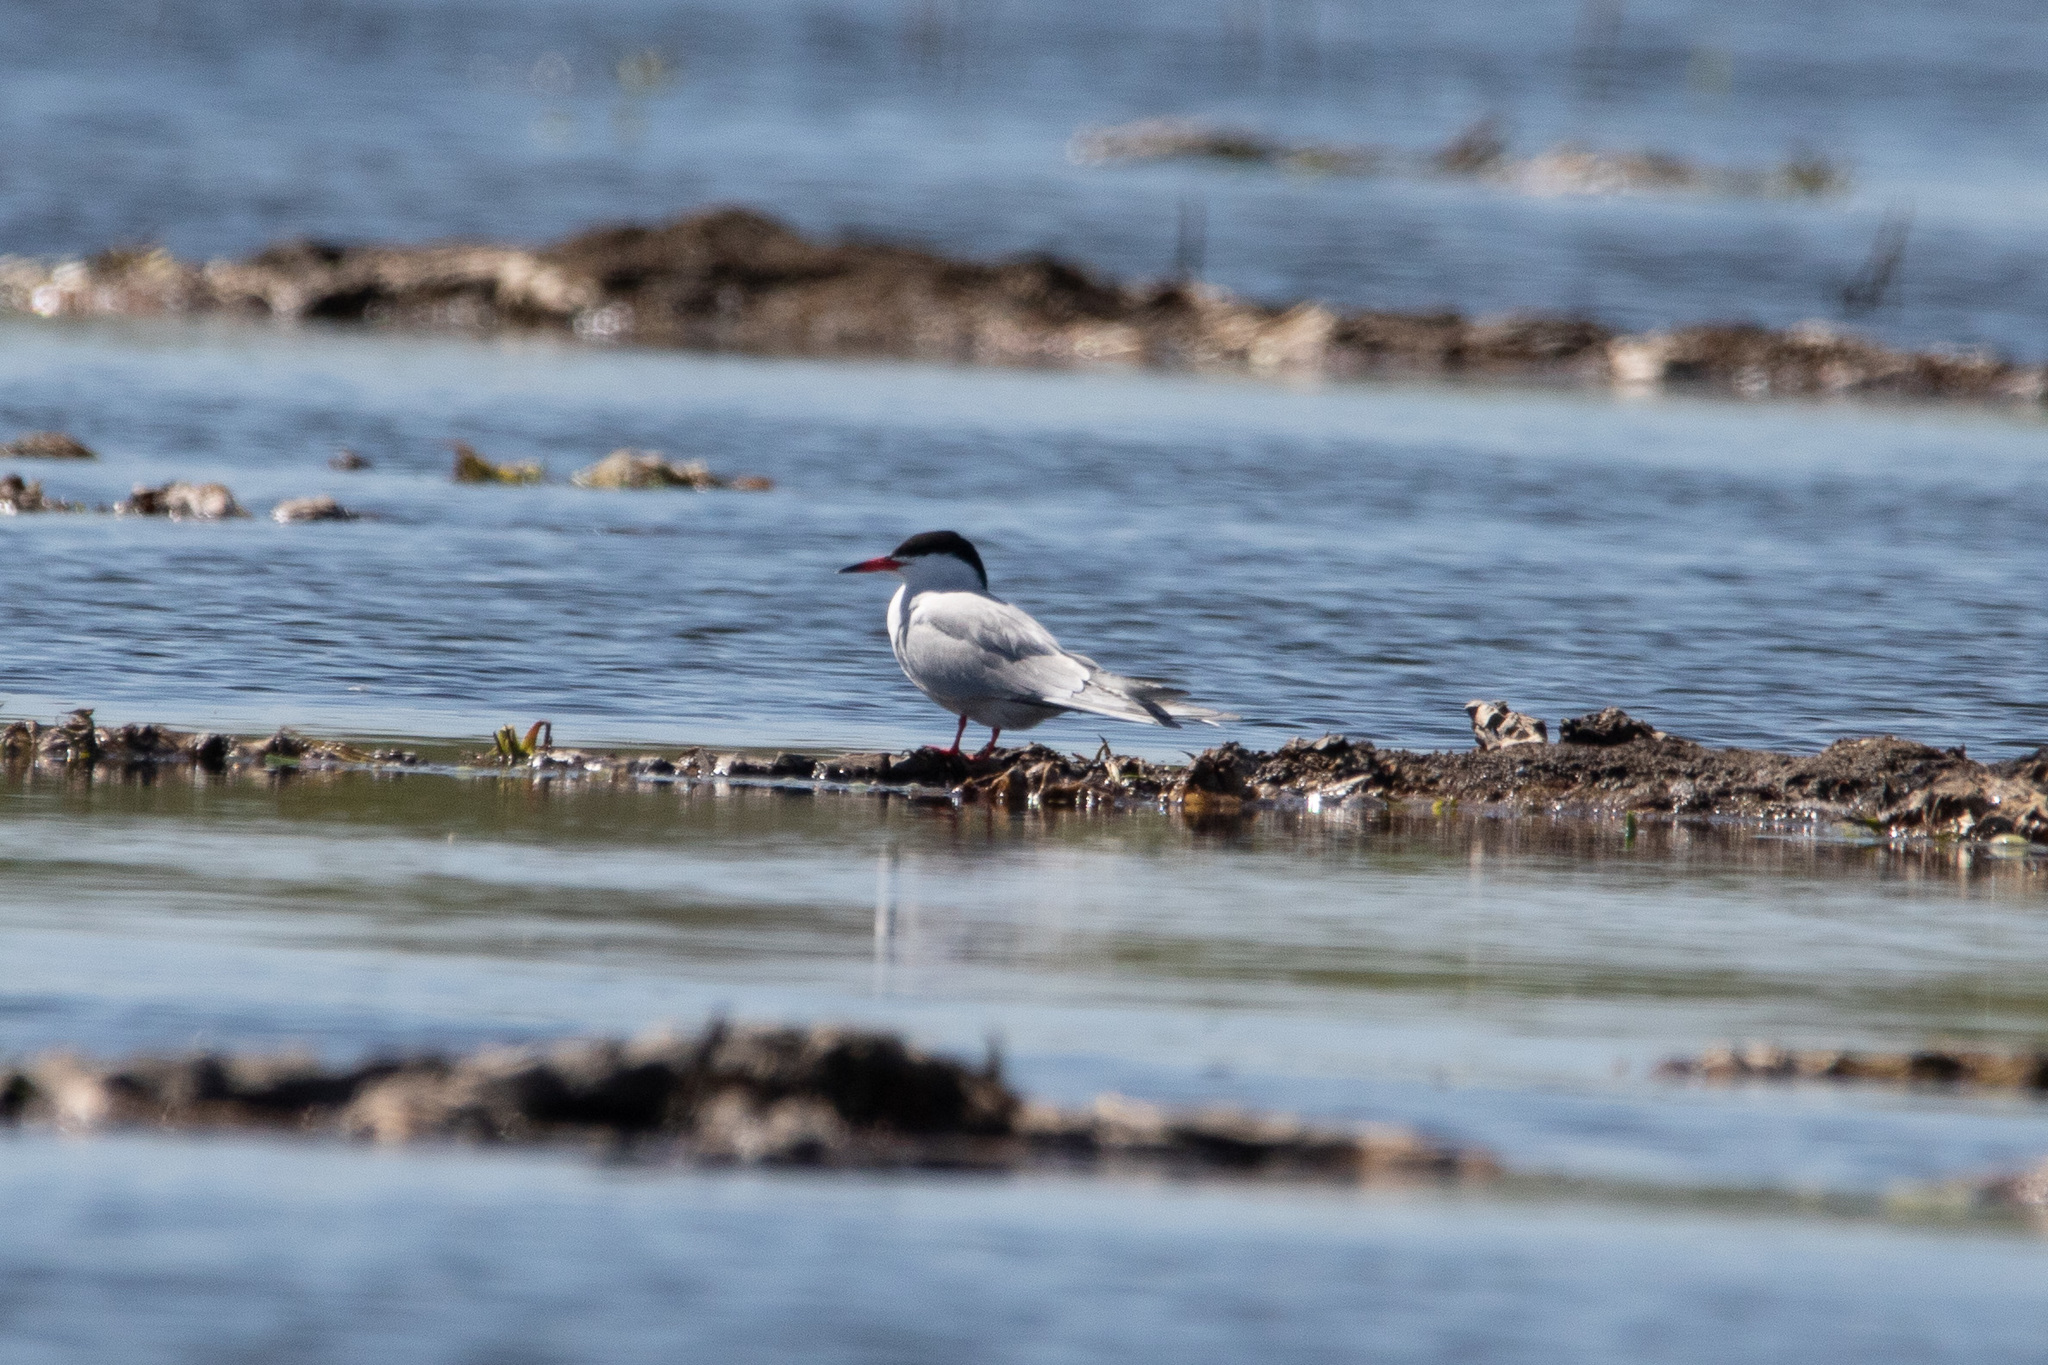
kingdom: Animalia
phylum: Chordata
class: Aves
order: Charadriiformes
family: Laridae
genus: Sterna
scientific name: Sterna hirundo
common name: Common tern
